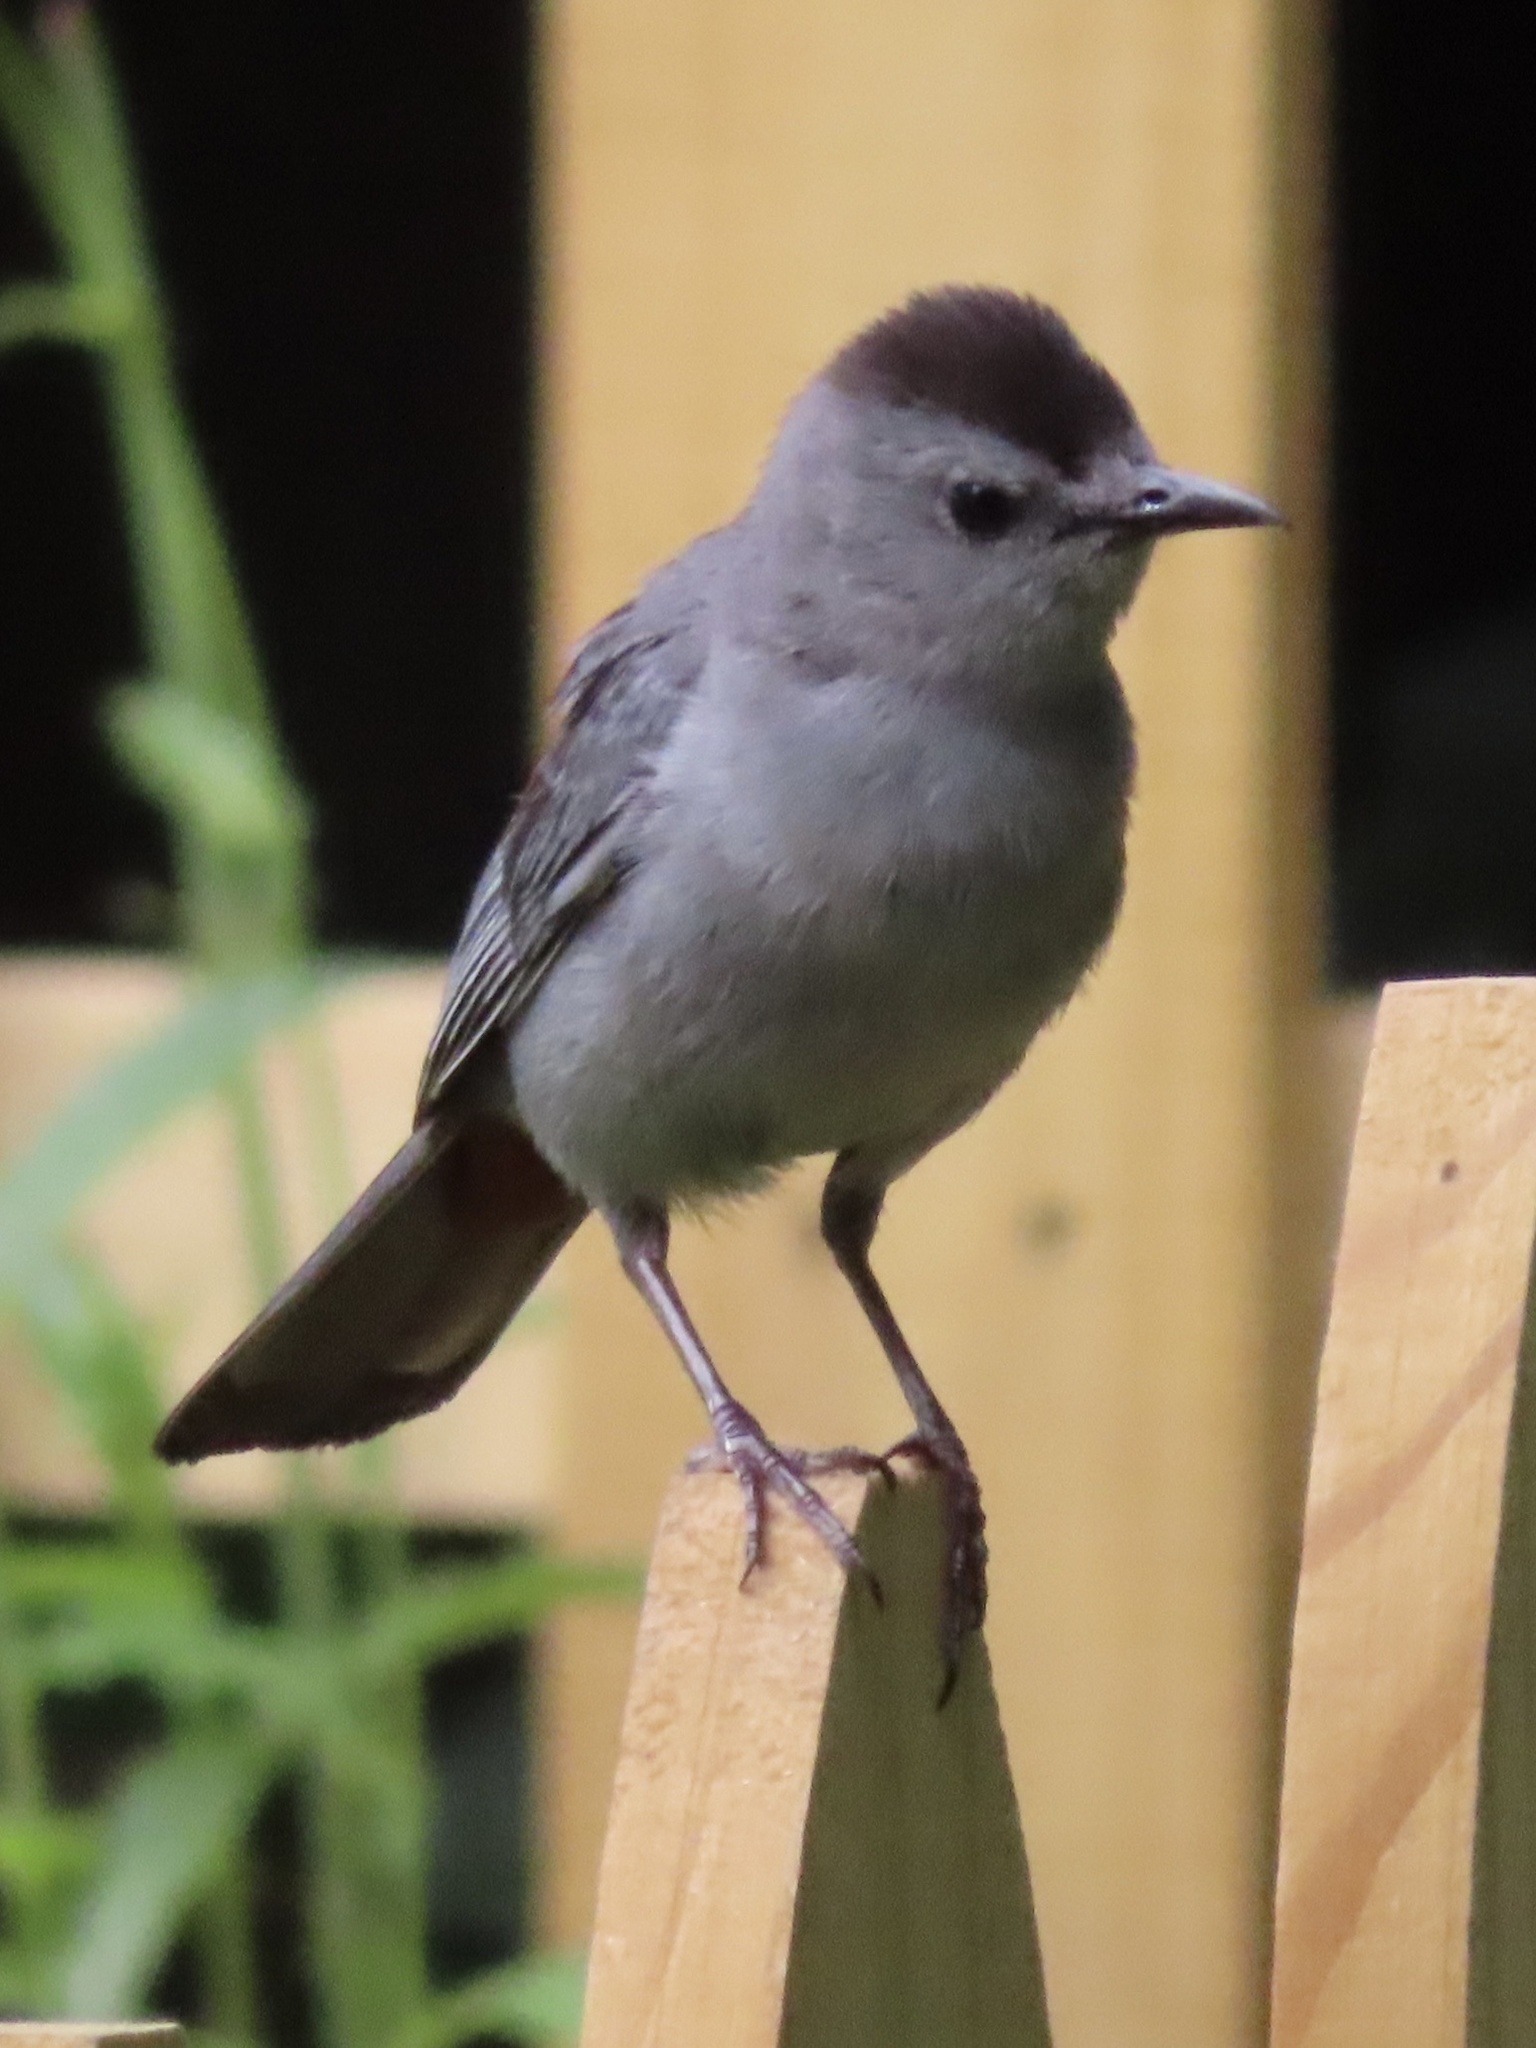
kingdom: Animalia
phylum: Chordata
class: Aves
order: Passeriformes
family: Mimidae
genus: Dumetella
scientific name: Dumetella carolinensis
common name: Gray catbird
